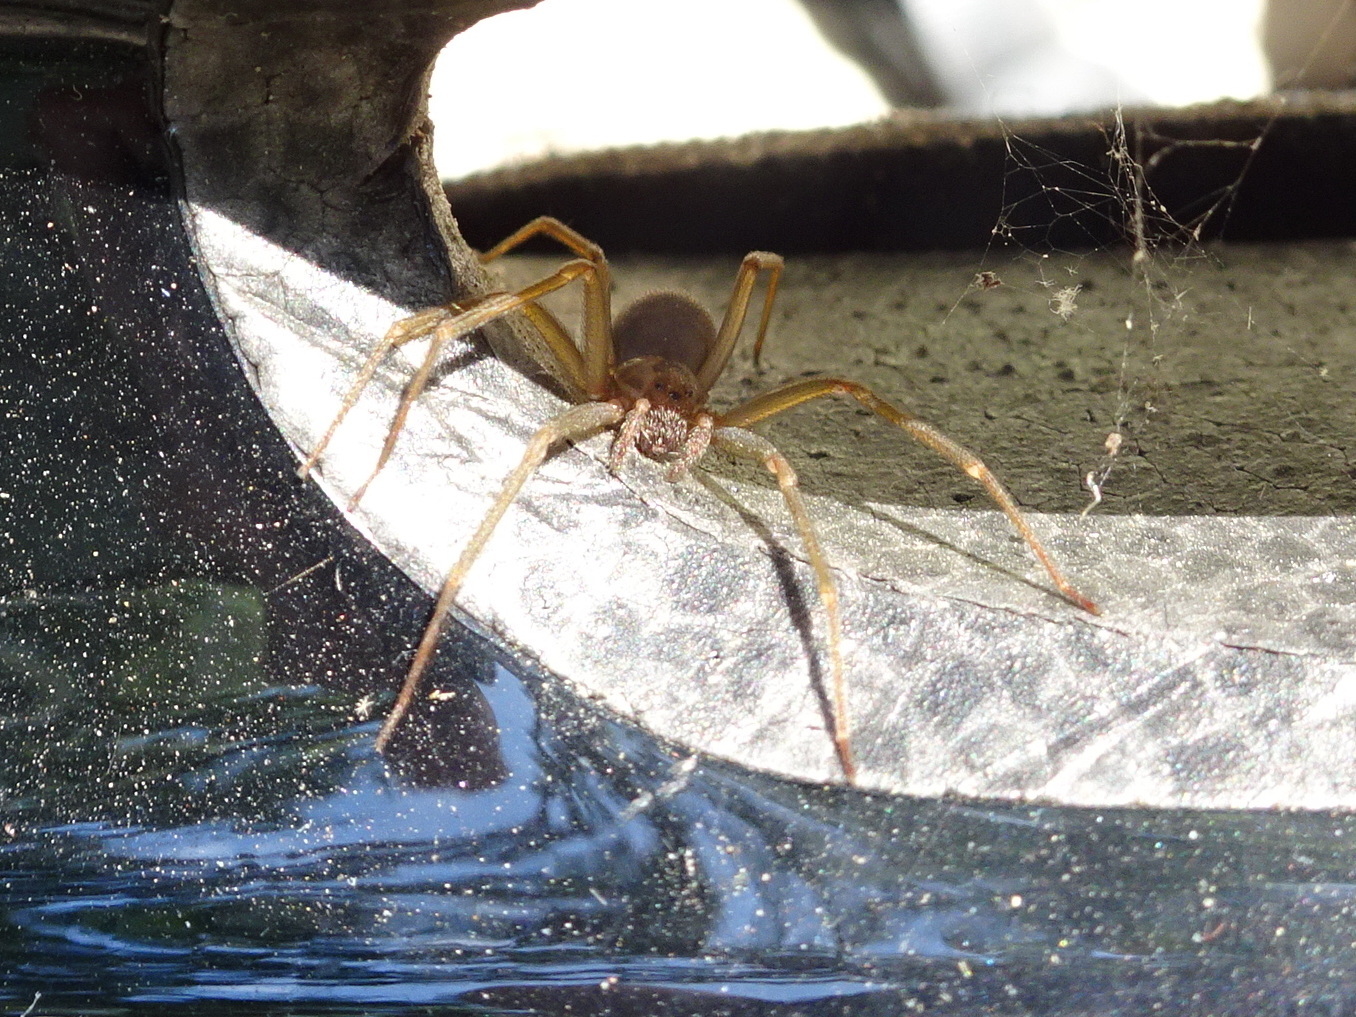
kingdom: Animalia
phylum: Arthropoda
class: Arachnida
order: Araneae
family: Sicariidae
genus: Loxosceles
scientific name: Loxosceles reclusa
